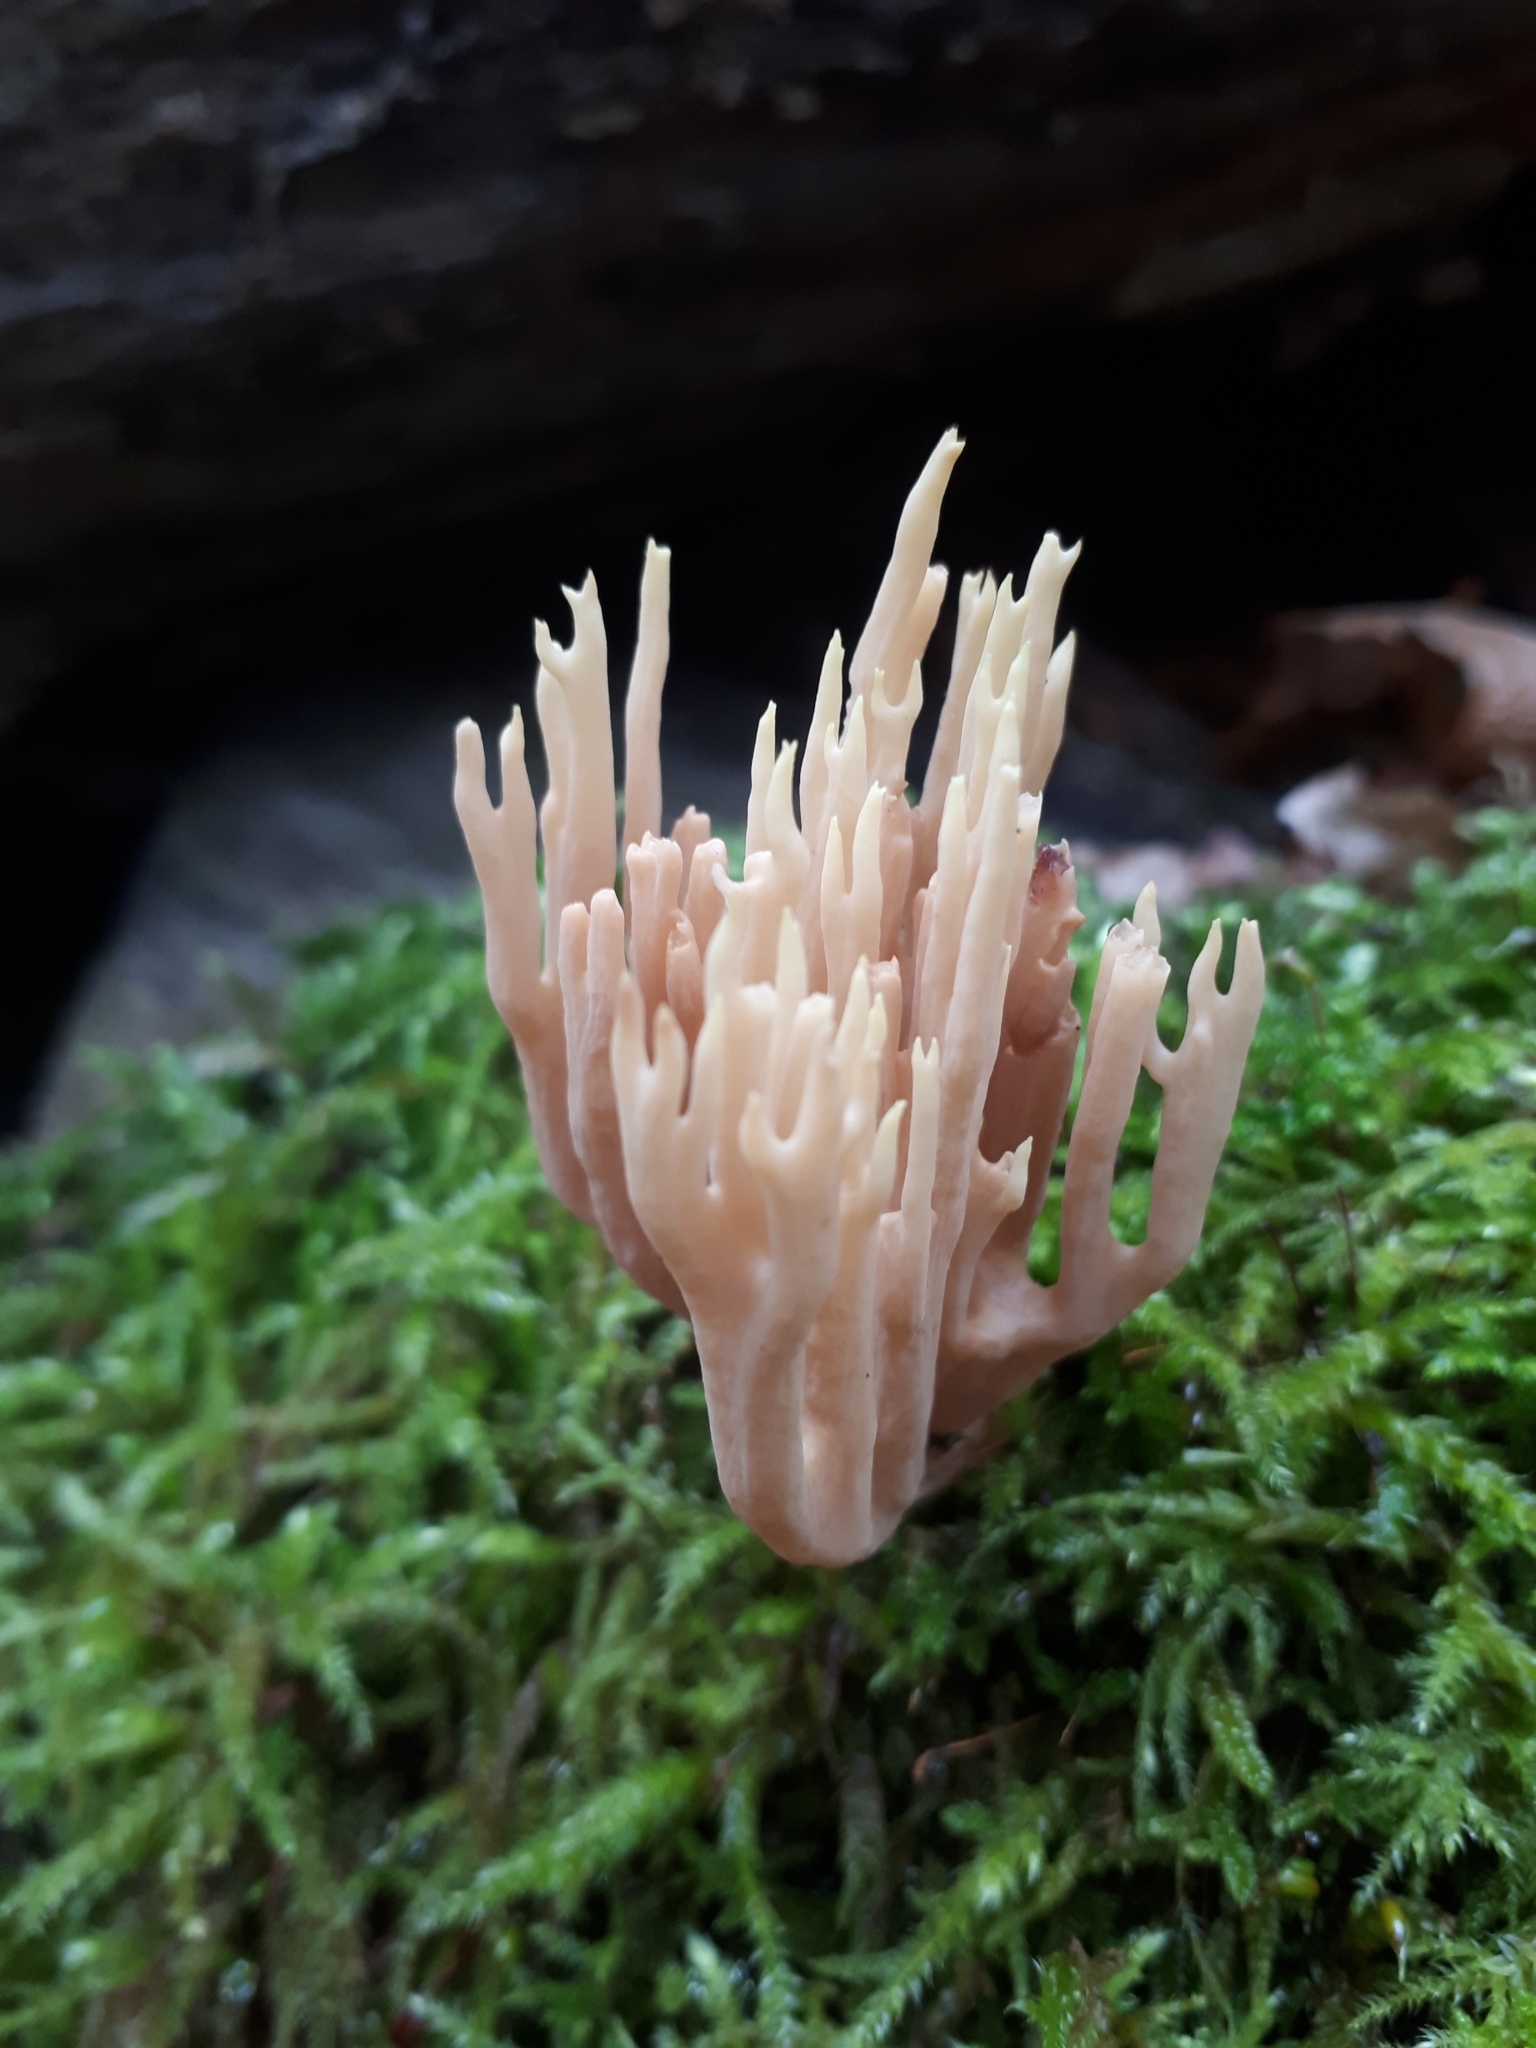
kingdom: Fungi
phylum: Basidiomycota
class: Agaricomycetes
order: Gomphales
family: Gomphaceae
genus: Ramaria
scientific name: Ramaria stricta
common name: Upright coral
